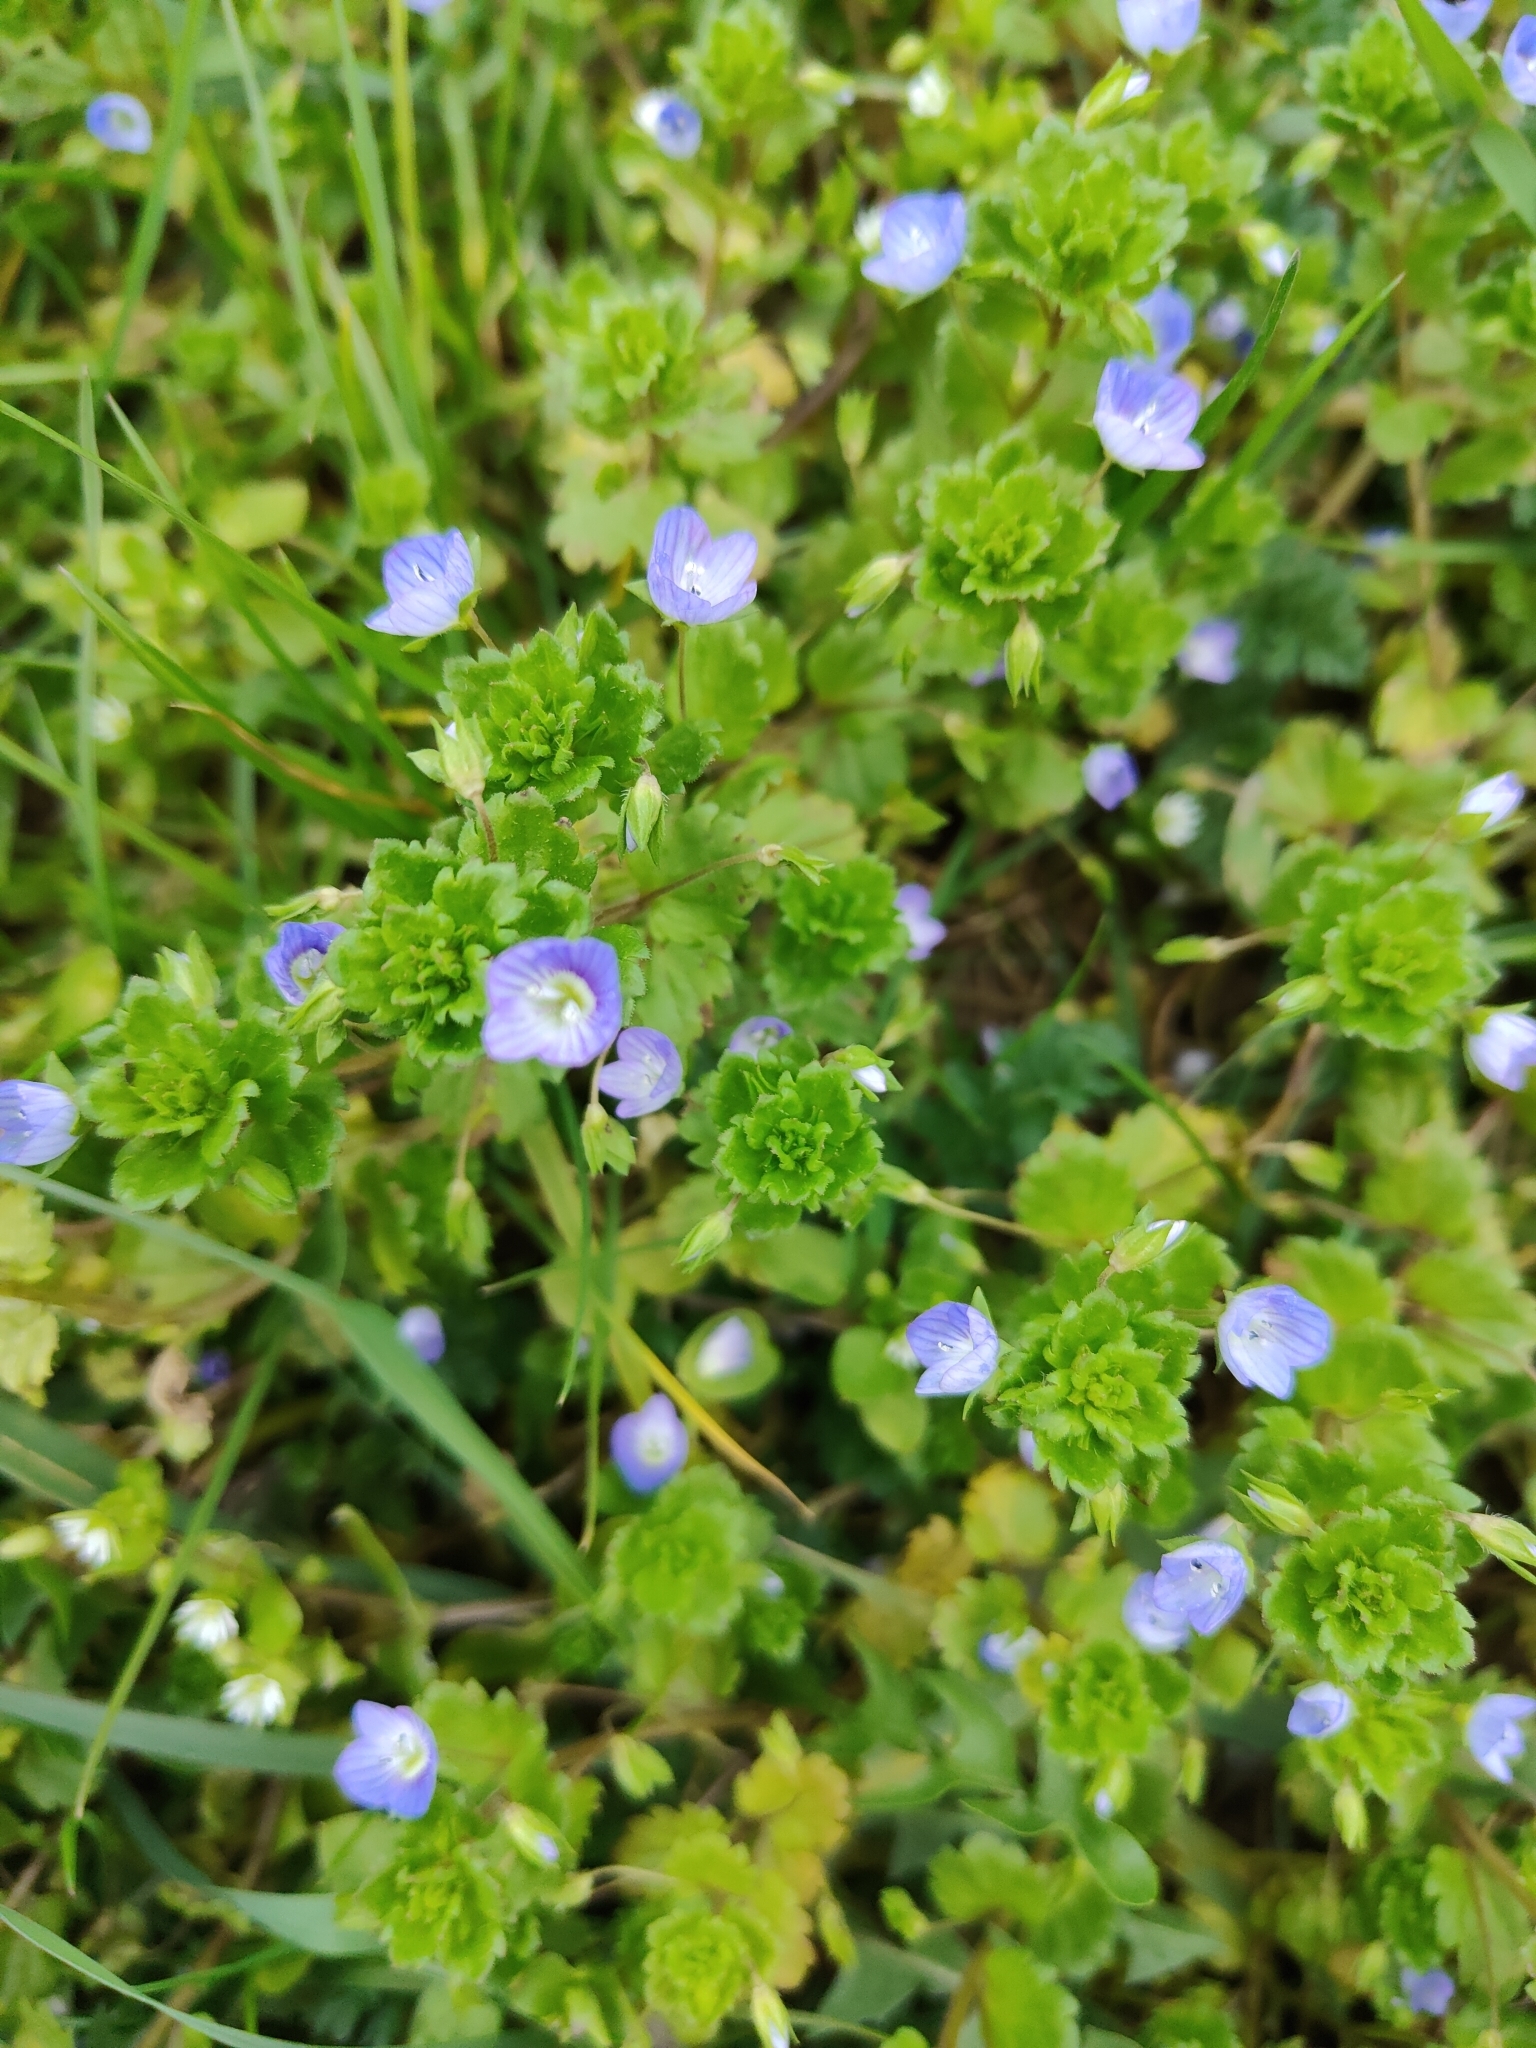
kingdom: Plantae
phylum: Tracheophyta
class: Magnoliopsida
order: Lamiales
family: Plantaginaceae
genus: Veronica
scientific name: Veronica persica
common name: Common field-speedwell
